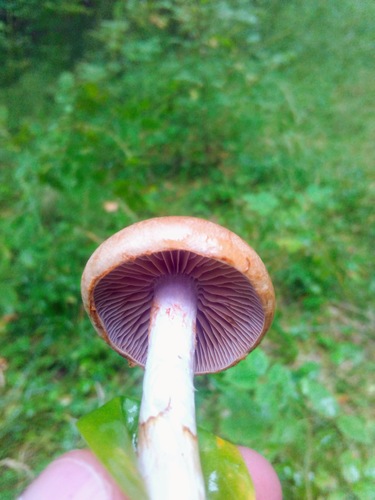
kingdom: Fungi
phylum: Basidiomycota
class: Agaricomycetes
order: Agaricales
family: Cortinariaceae
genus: Cortinarius
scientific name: Cortinarius
